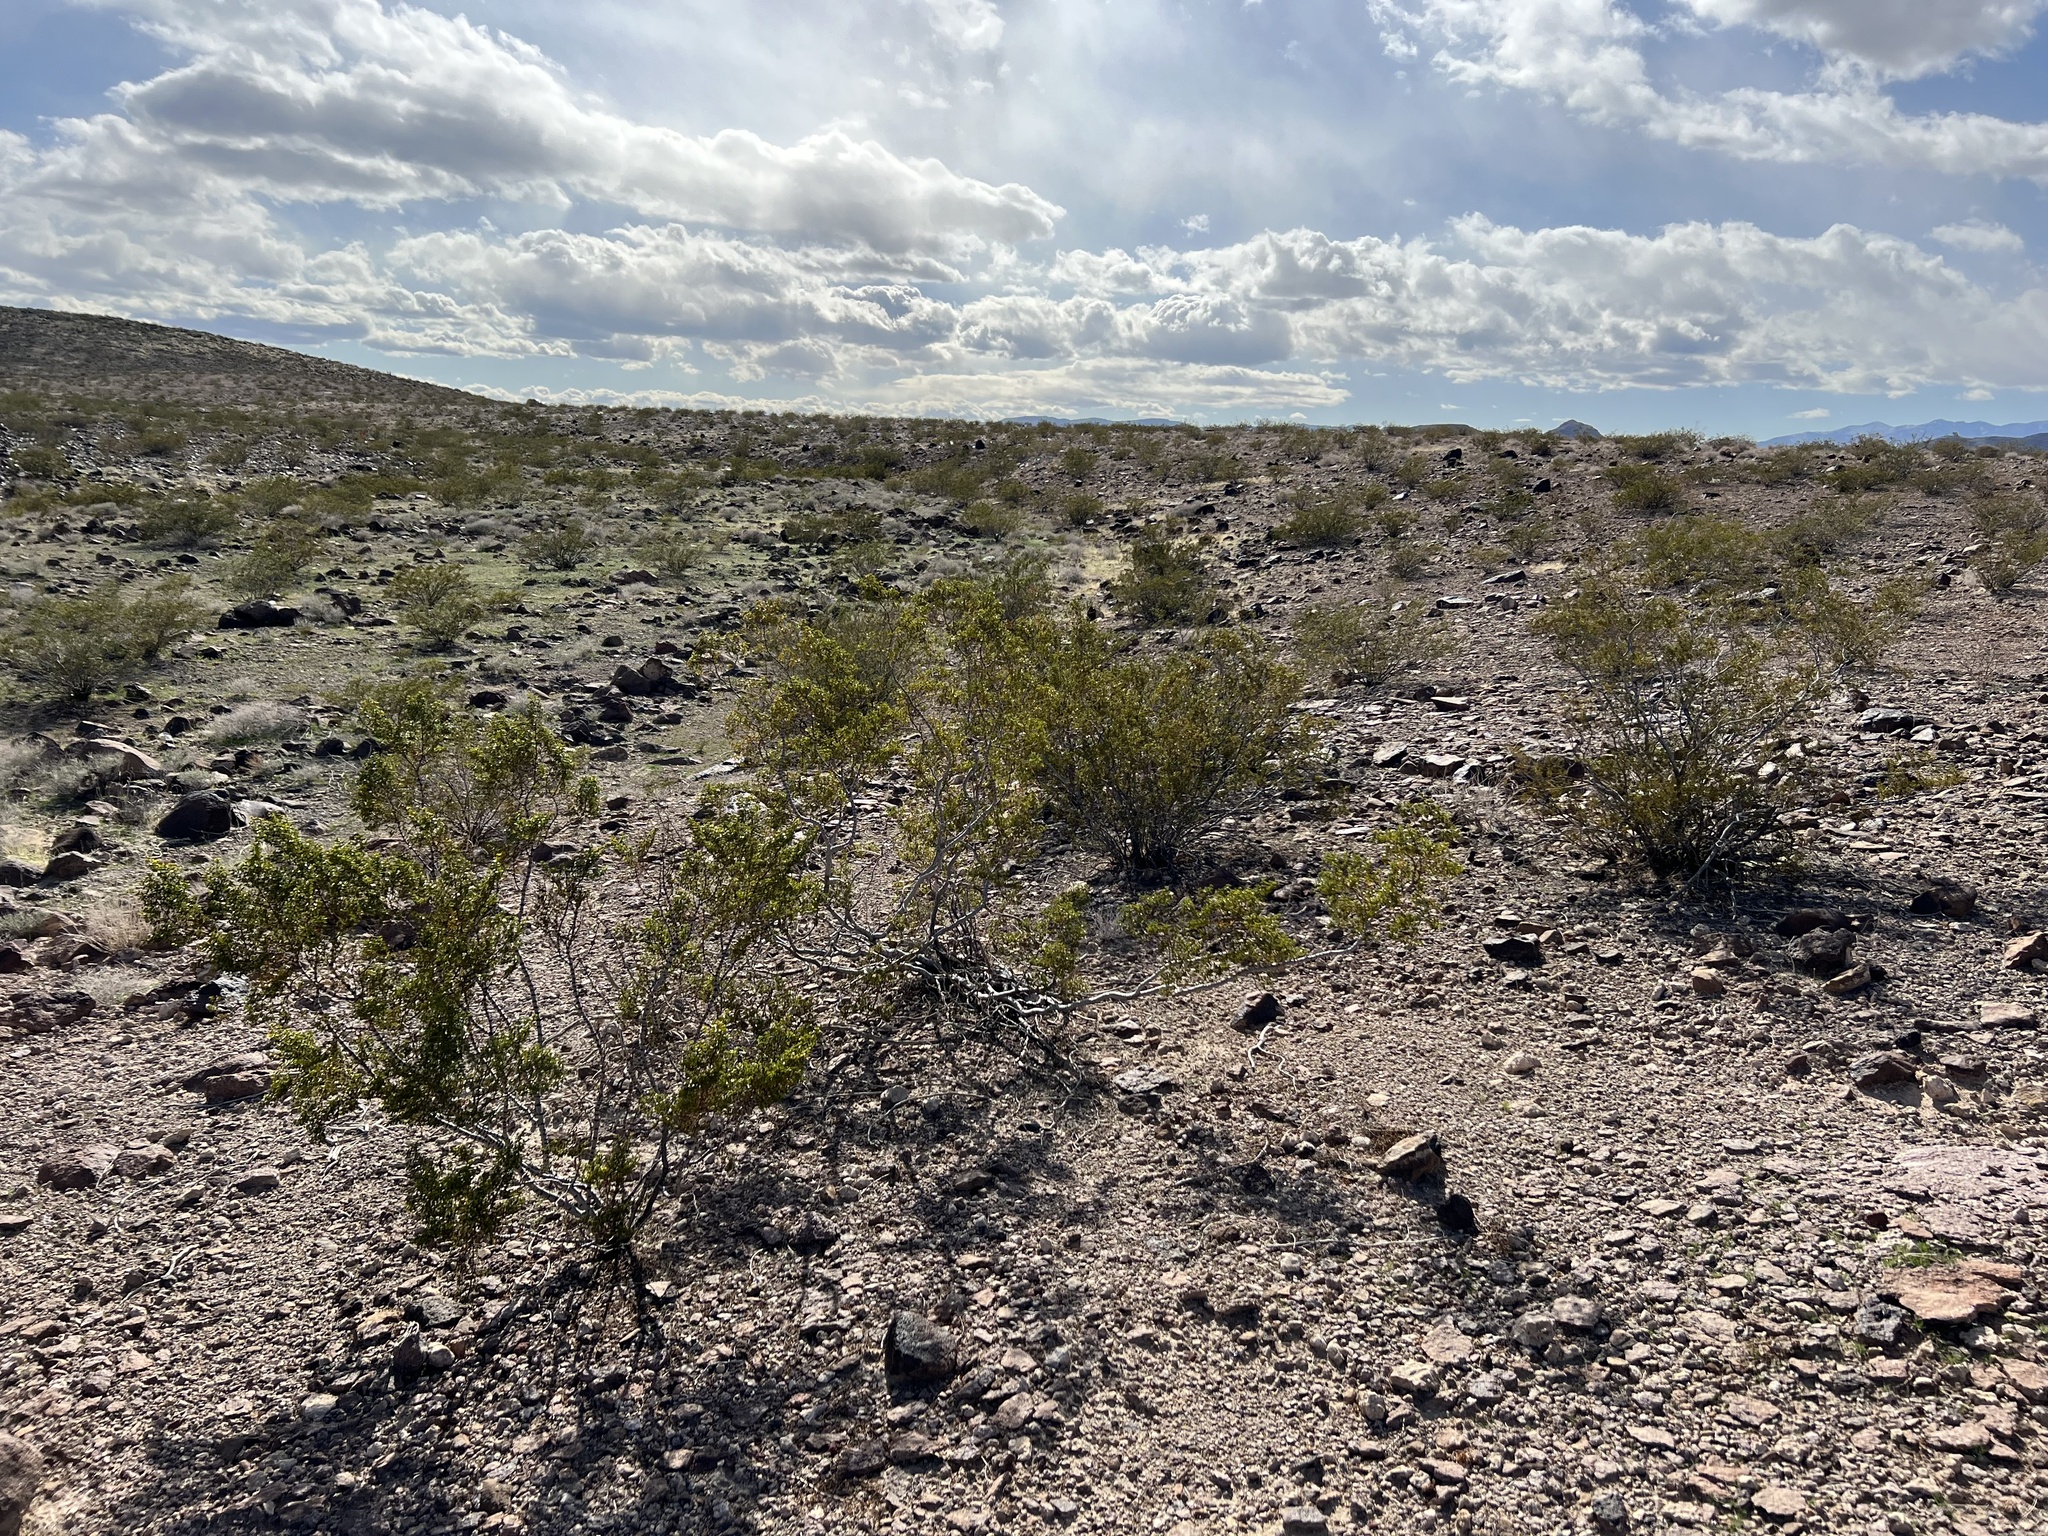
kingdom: Plantae
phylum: Tracheophyta
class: Magnoliopsida
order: Zygophyllales
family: Zygophyllaceae
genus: Larrea
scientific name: Larrea tridentata
